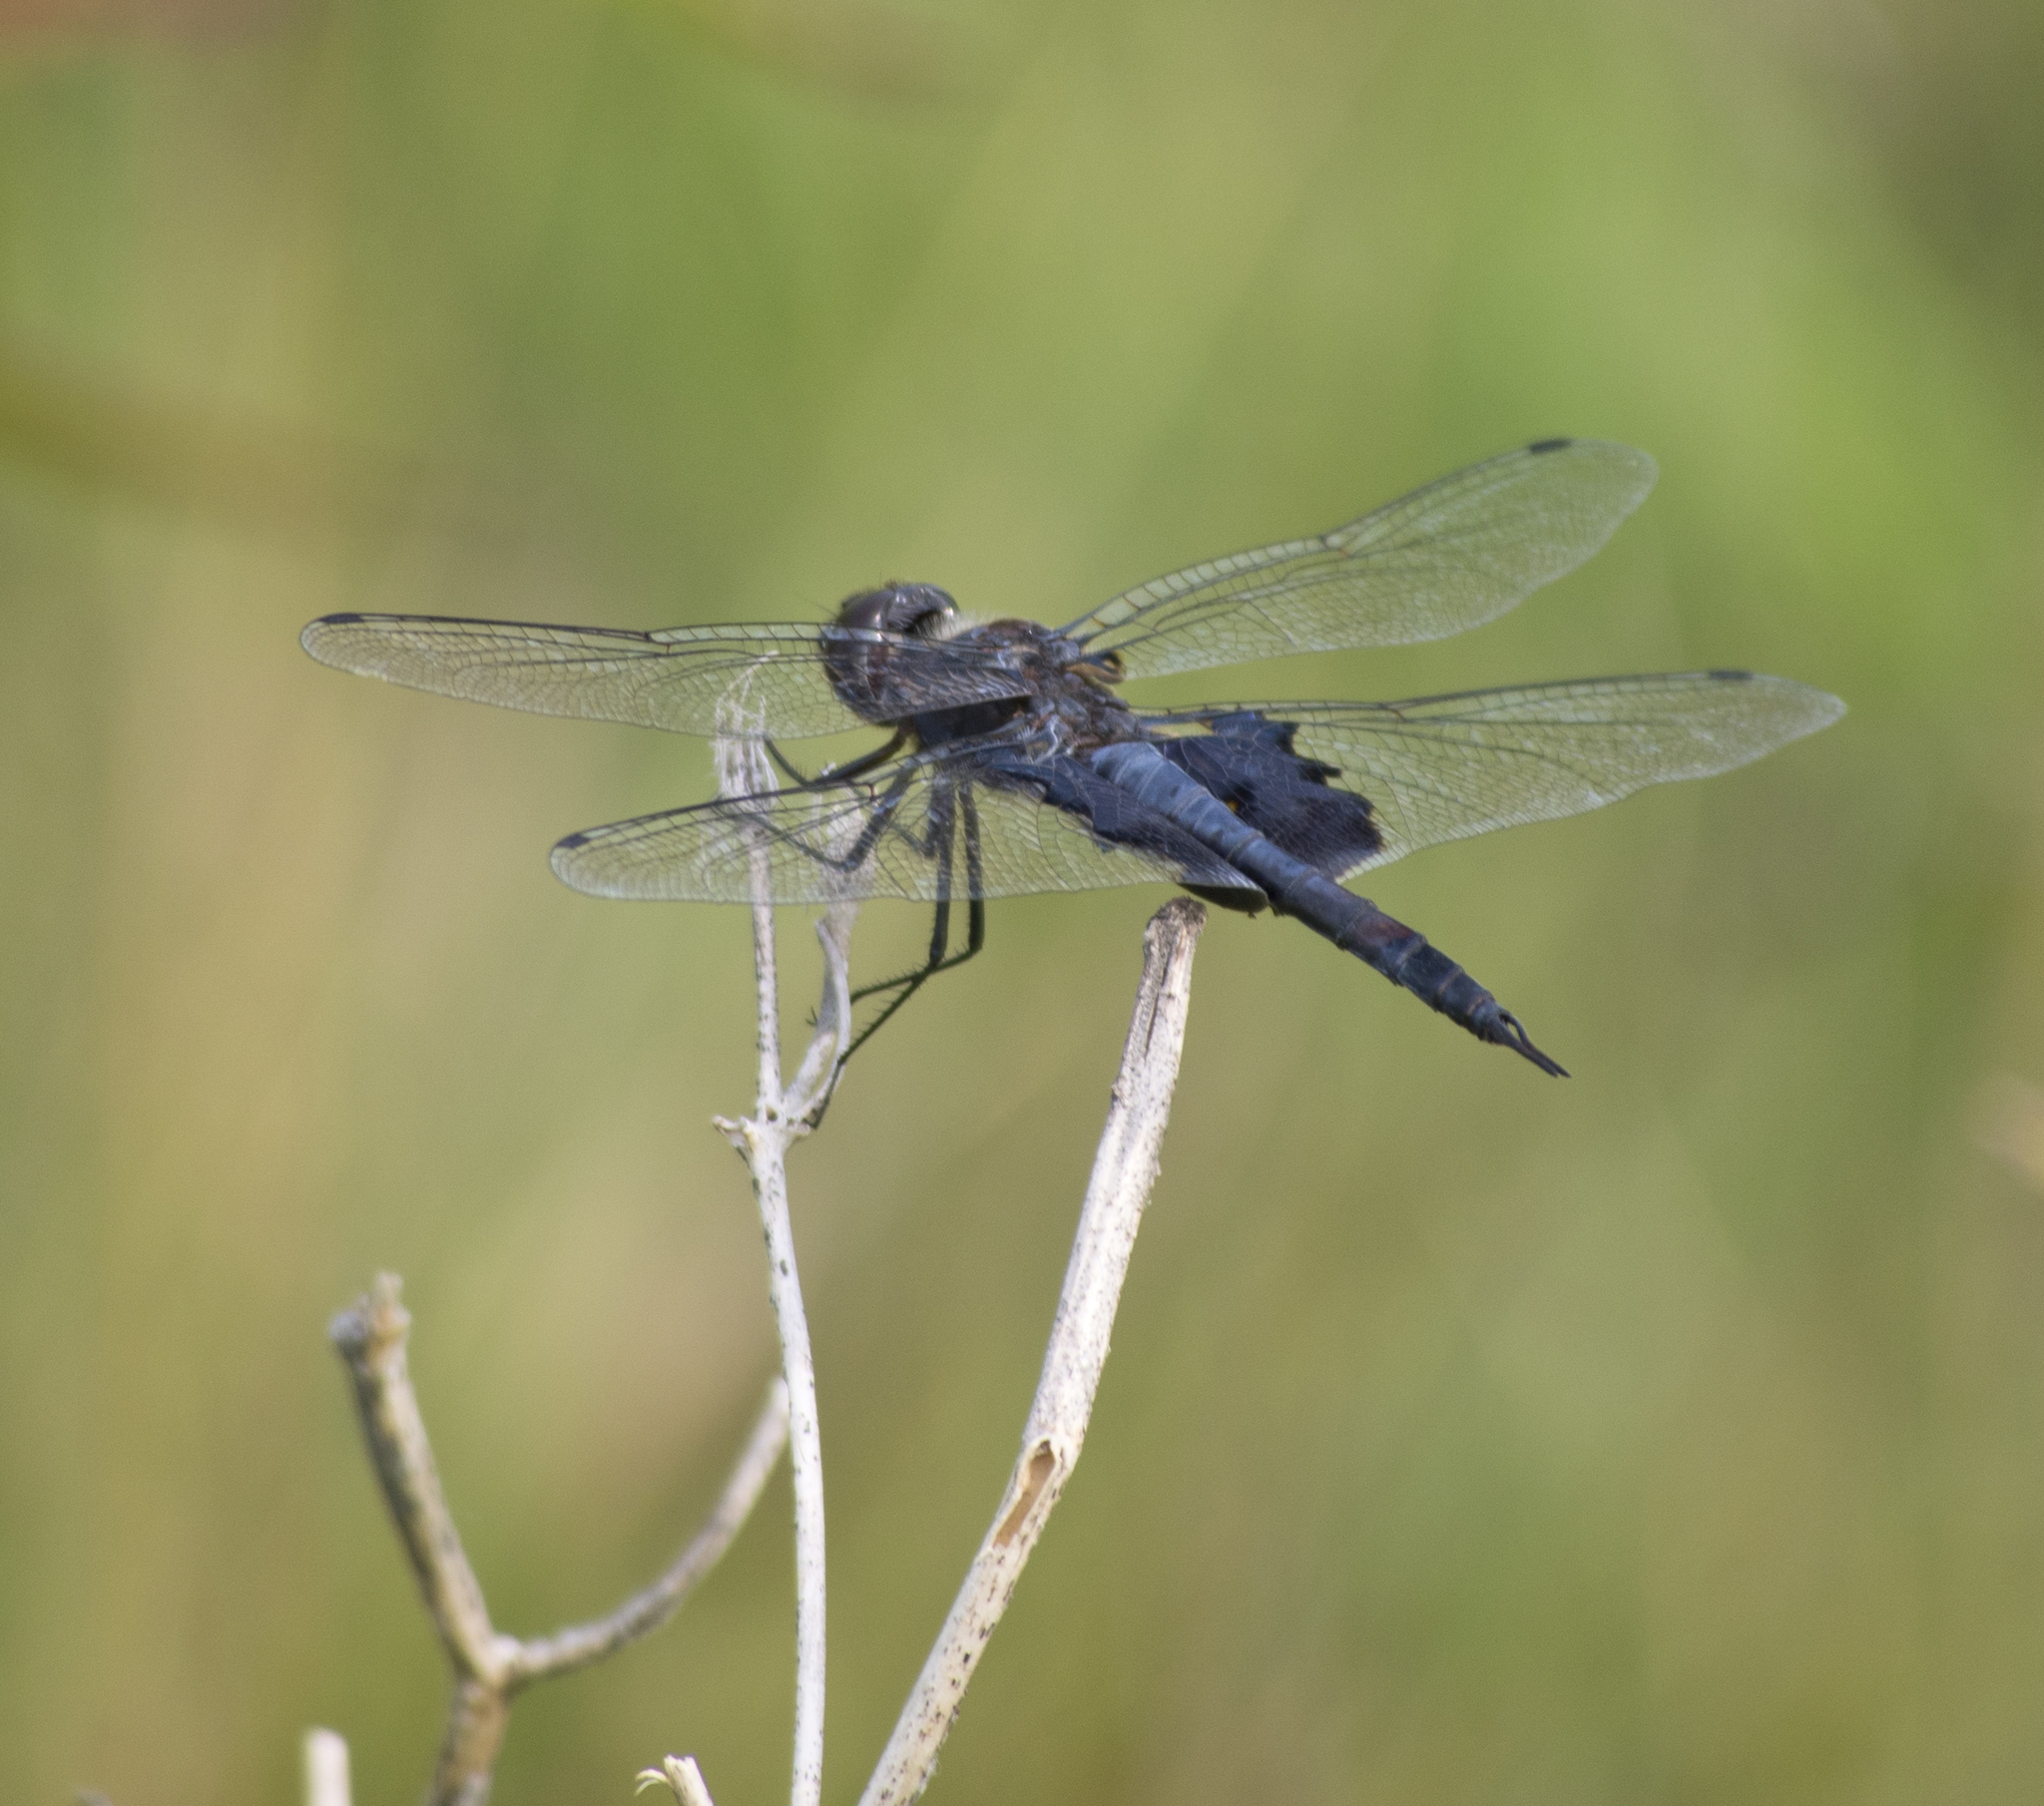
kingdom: Animalia
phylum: Arthropoda
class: Insecta
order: Odonata
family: Libellulidae
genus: Tramea
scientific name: Tramea lacerata
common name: Black saddlebags
